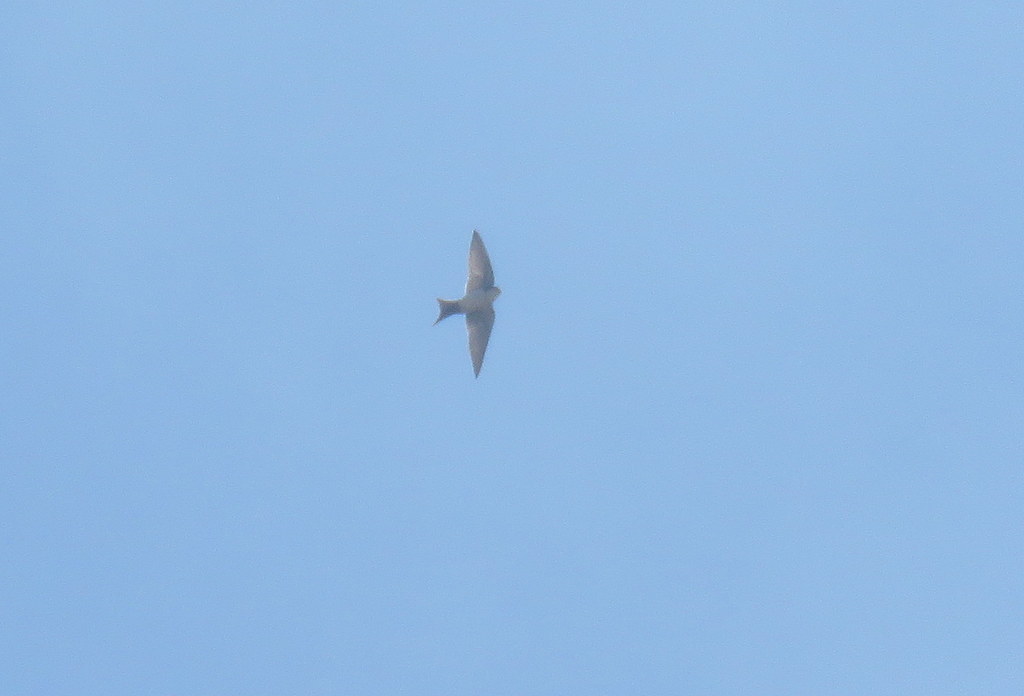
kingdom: Animalia
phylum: Chordata
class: Aves
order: Passeriformes
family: Hirundinidae
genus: Notiochelidon
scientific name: Notiochelidon cyanoleuca
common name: Blue-and-white swallow
